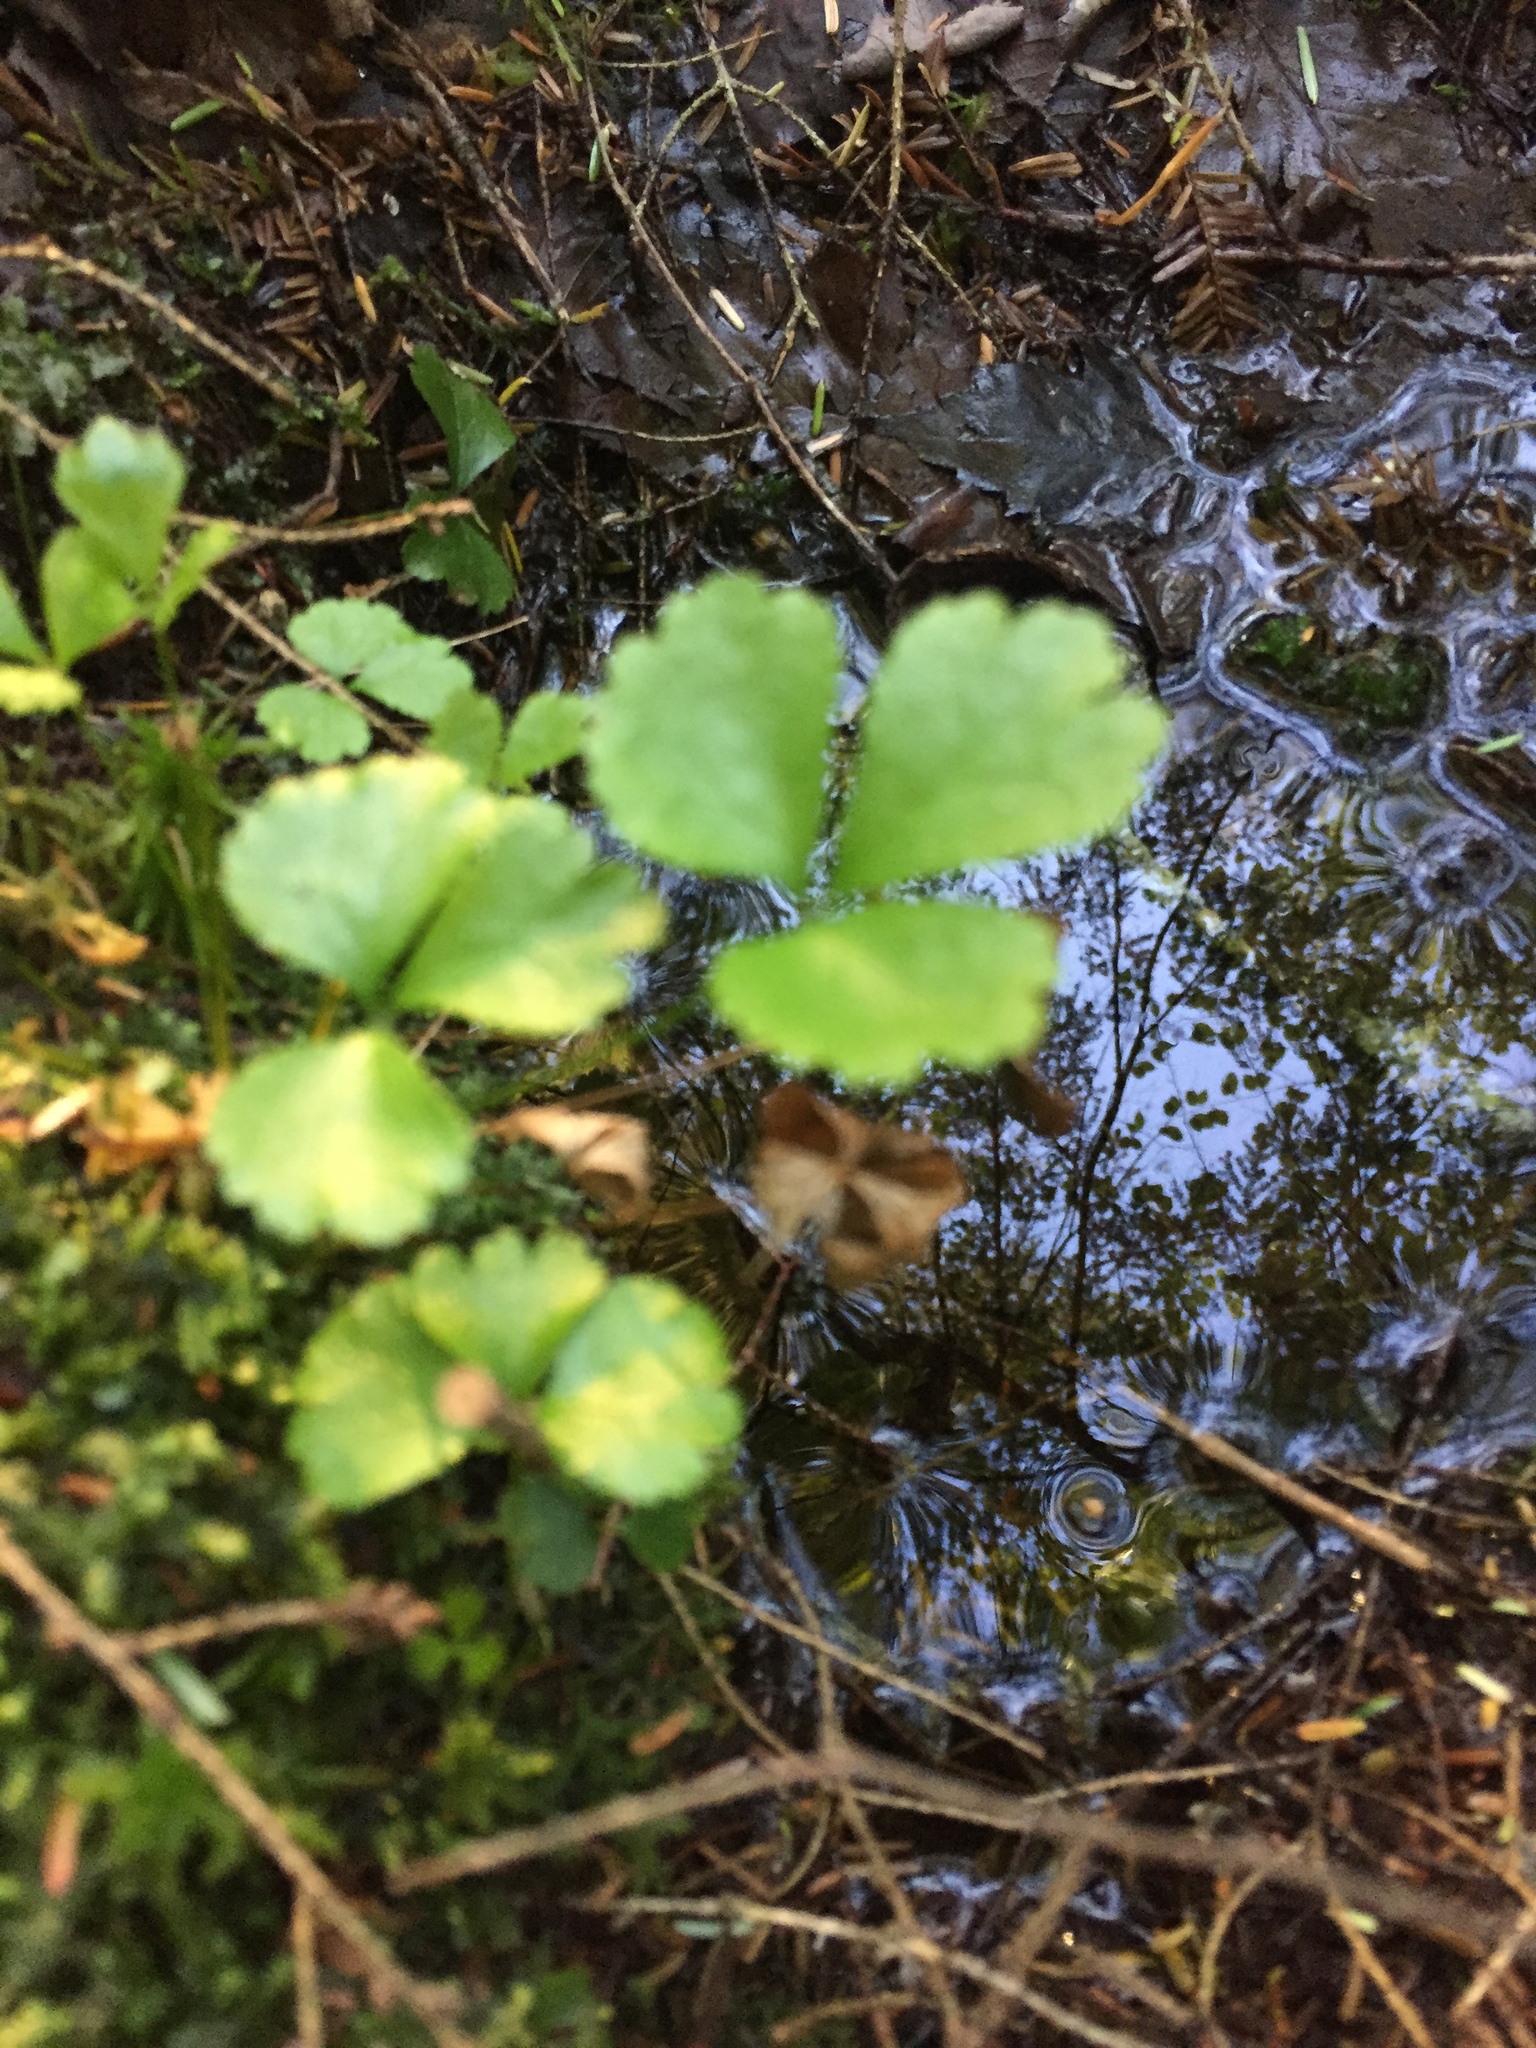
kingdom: Plantae
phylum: Tracheophyta
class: Magnoliopsida
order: Ranunculales
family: Ranunculaceae
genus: Coptis
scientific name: Coptis trifolia
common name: Canker-root
